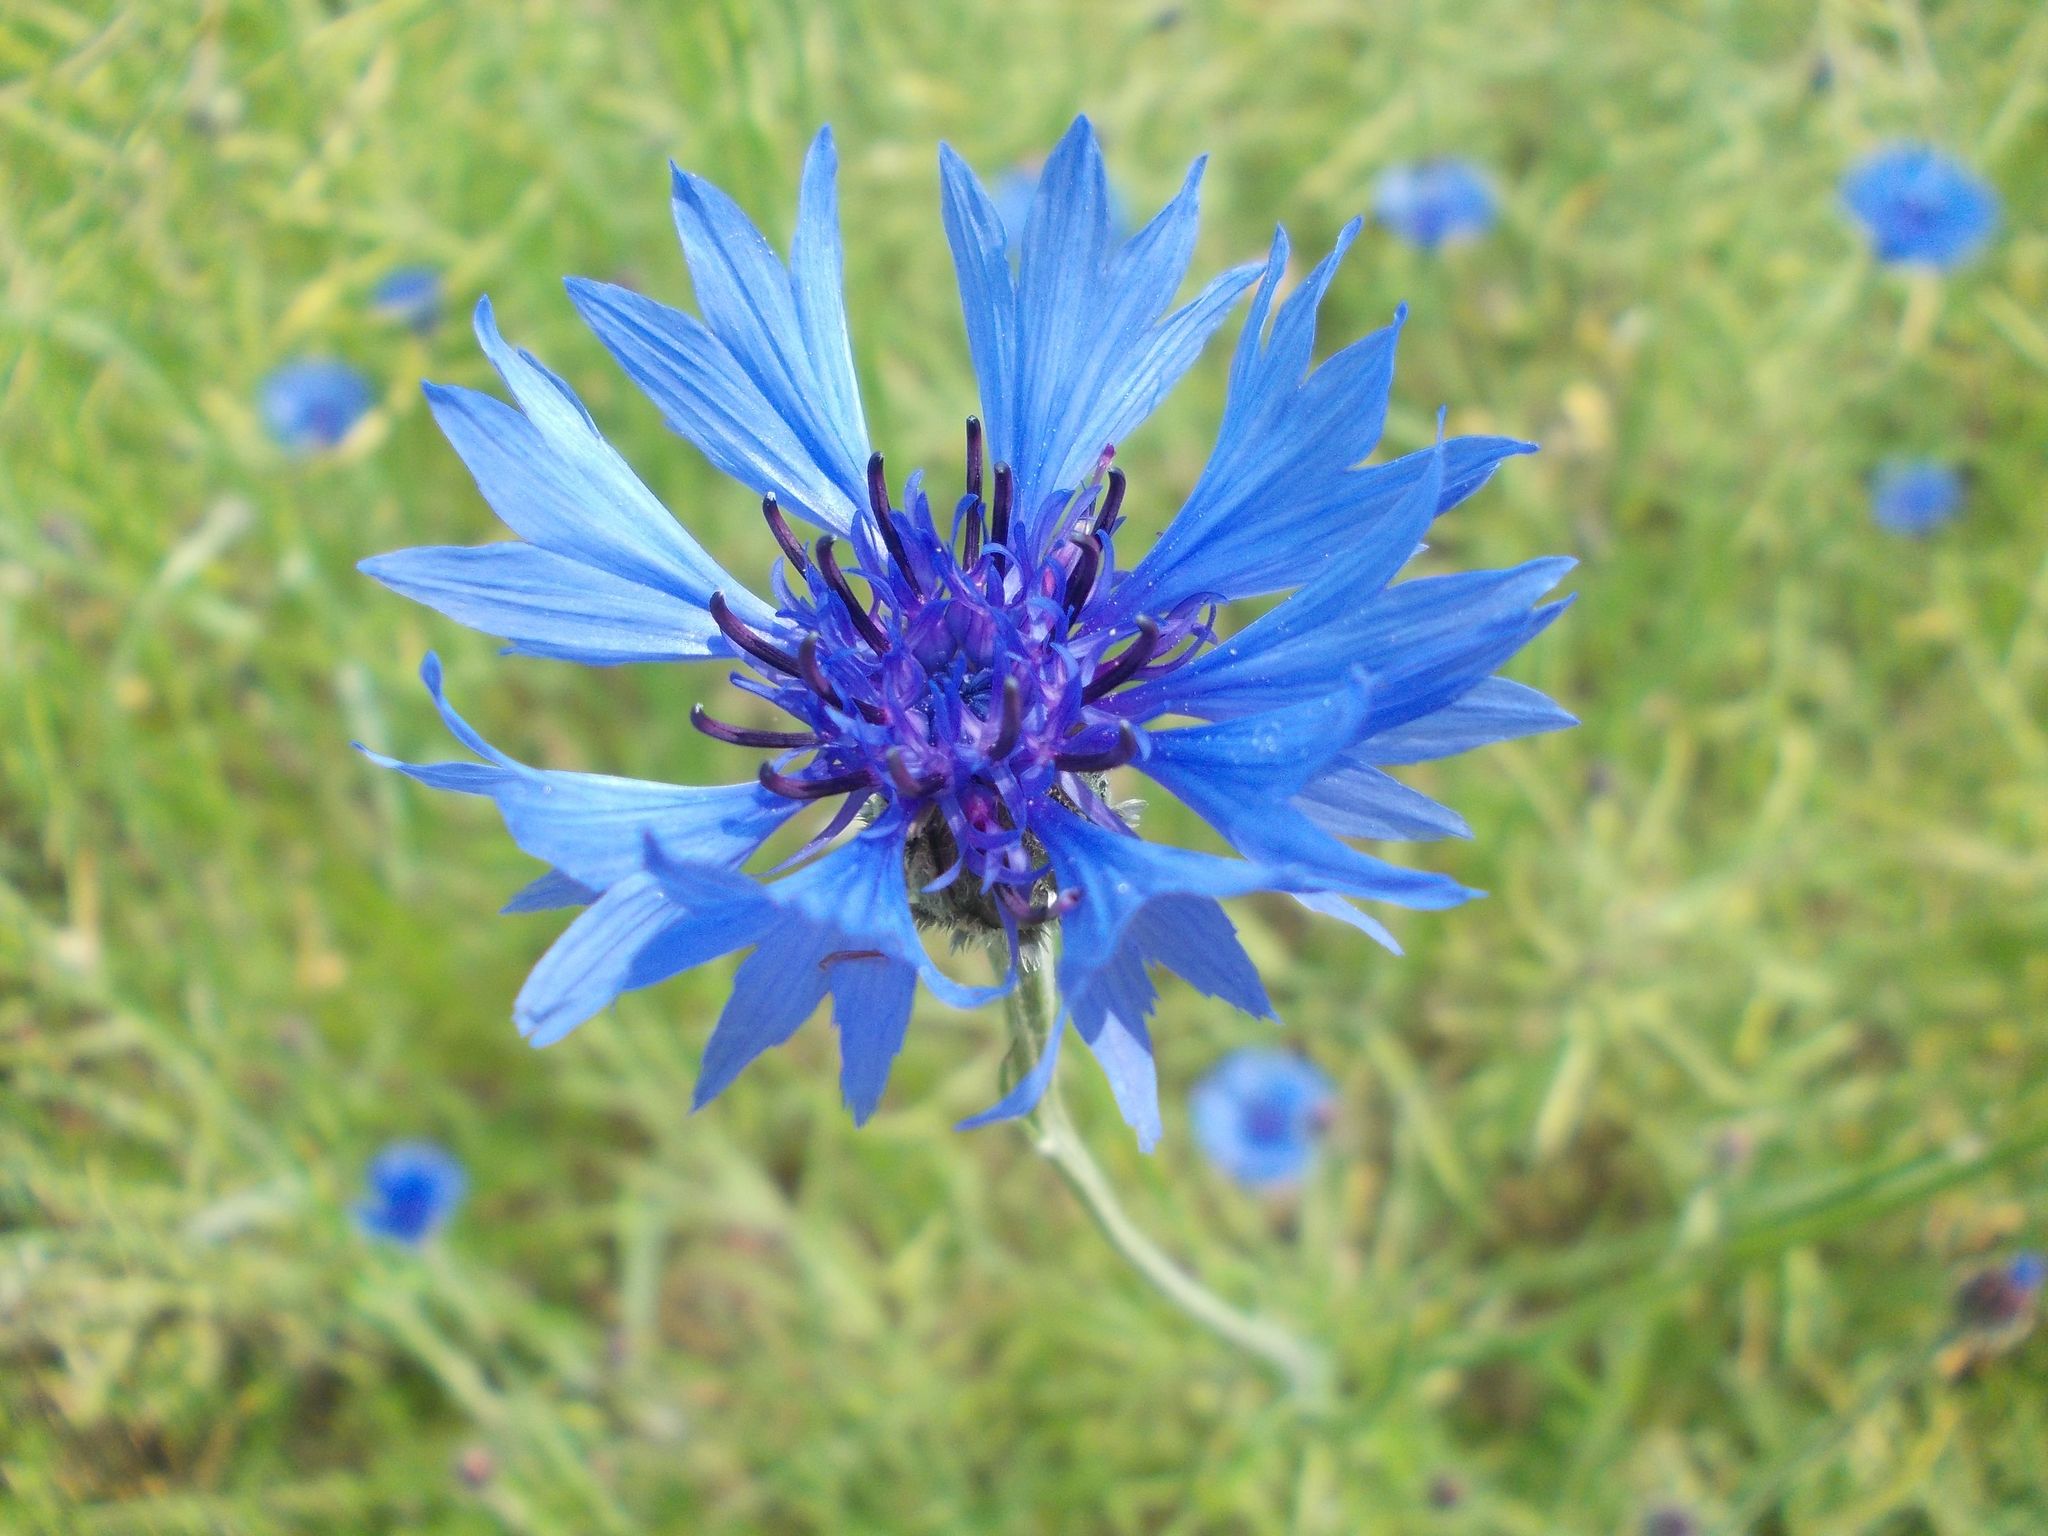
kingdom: Plantae
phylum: Tracheophyta
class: Magnoliopsida
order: Asterales
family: Asteraceae
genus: Centaurea
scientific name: Centaurea cyanus
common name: Cornflower
